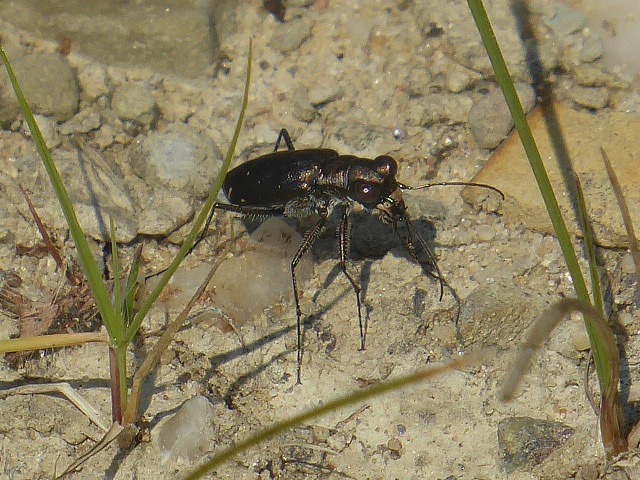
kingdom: Animalia
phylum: Arthropoda
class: Insecta
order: Coleoptera
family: Carabidae
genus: Cicindela
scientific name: Cicindela punctulata
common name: Punctured tiger beetle
